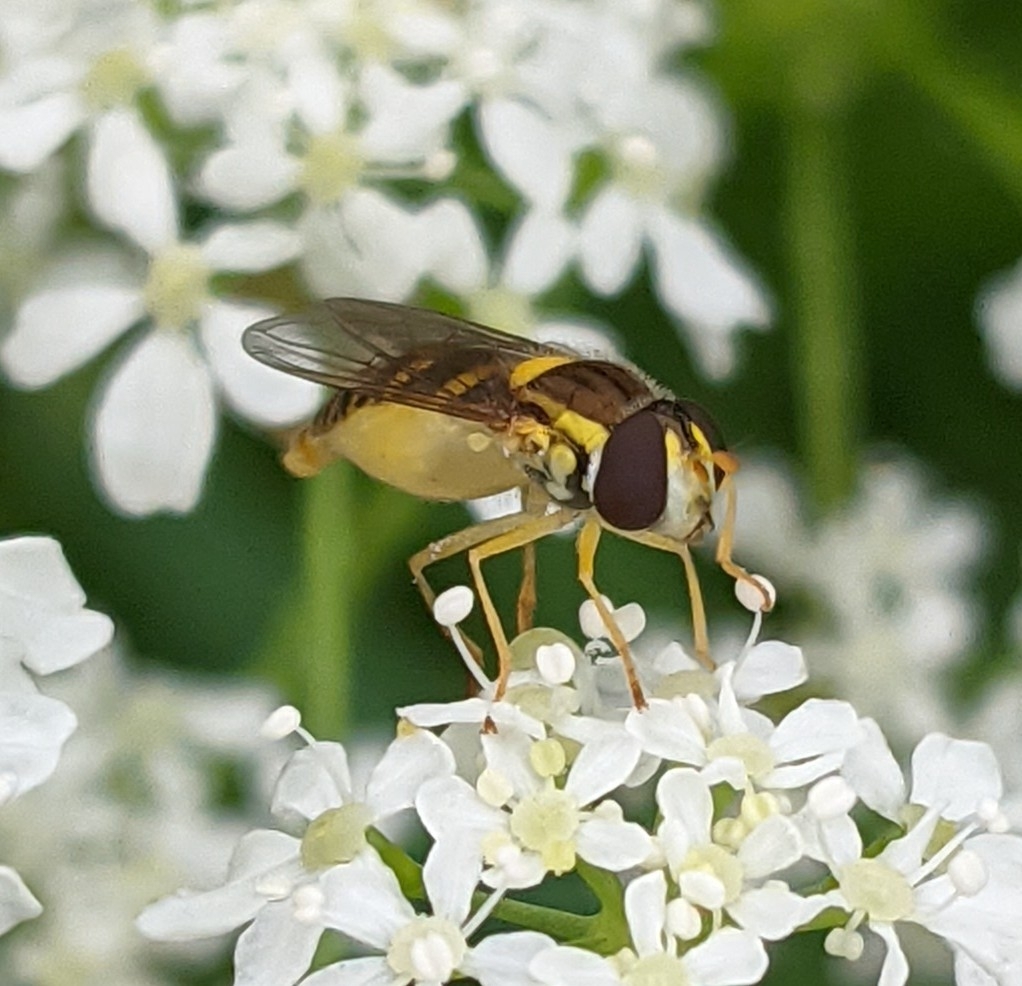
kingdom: Animalia
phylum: Arthropoda
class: Insecta
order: Diptera
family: Syrphidae
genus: Sphaerophoria
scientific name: Sphaerophoria
